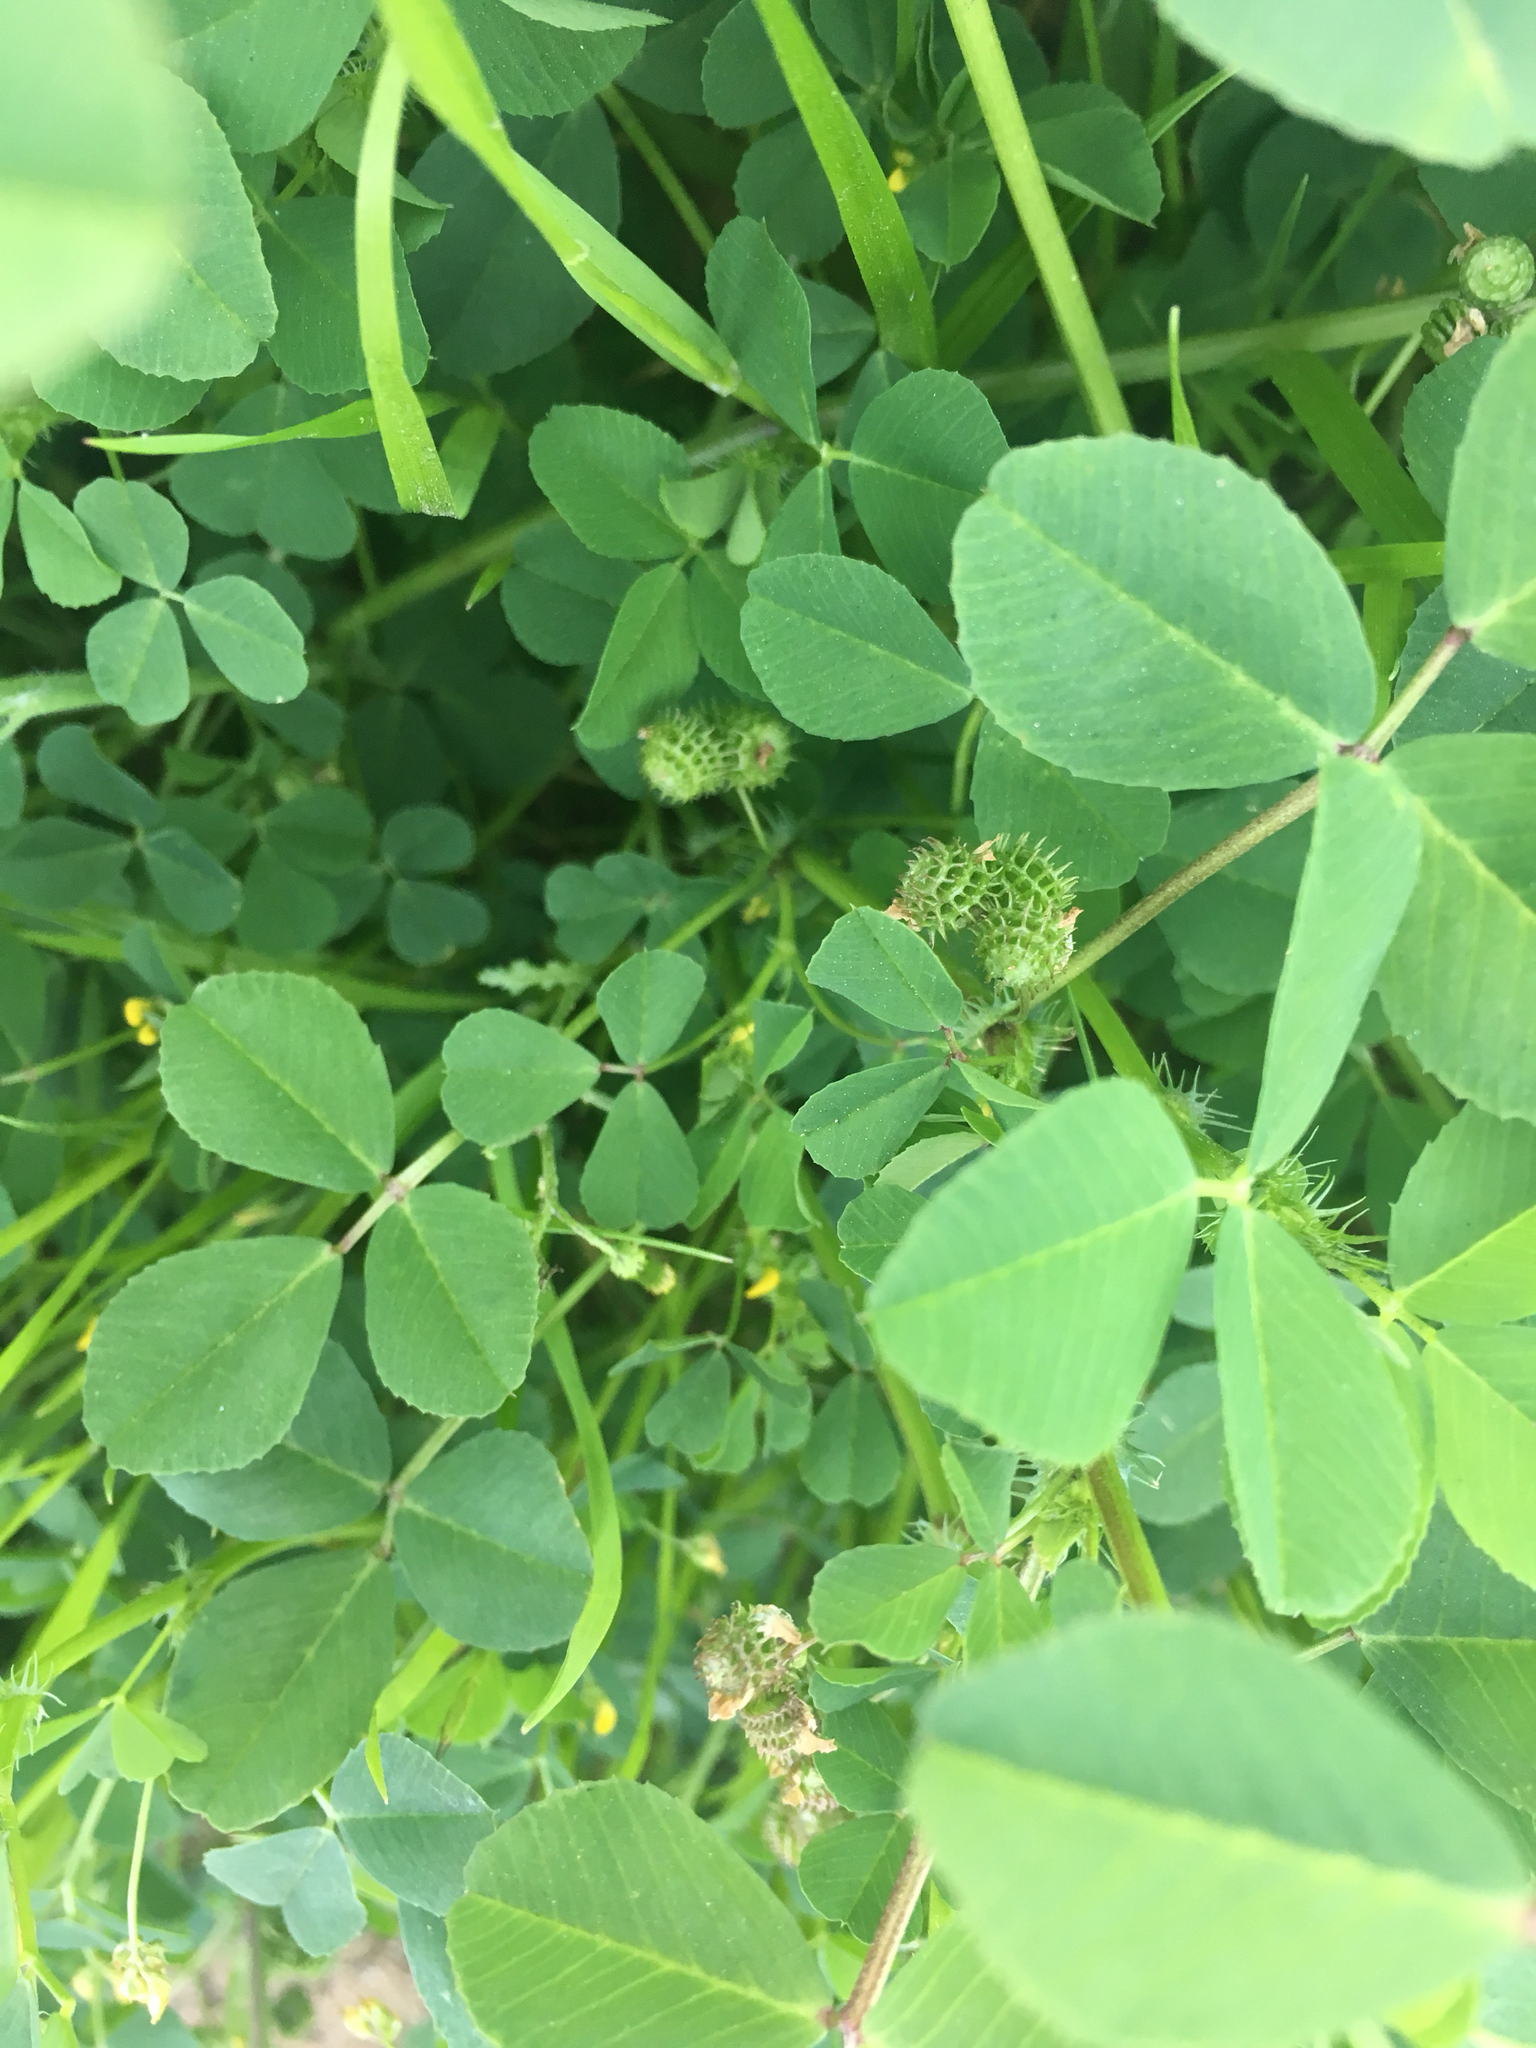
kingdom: Plantae
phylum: Tracheophyta
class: Magnoliopsida
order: Fabales
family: Fabaceae
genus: Medicago
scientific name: Medicago polymorpha
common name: Burclover
